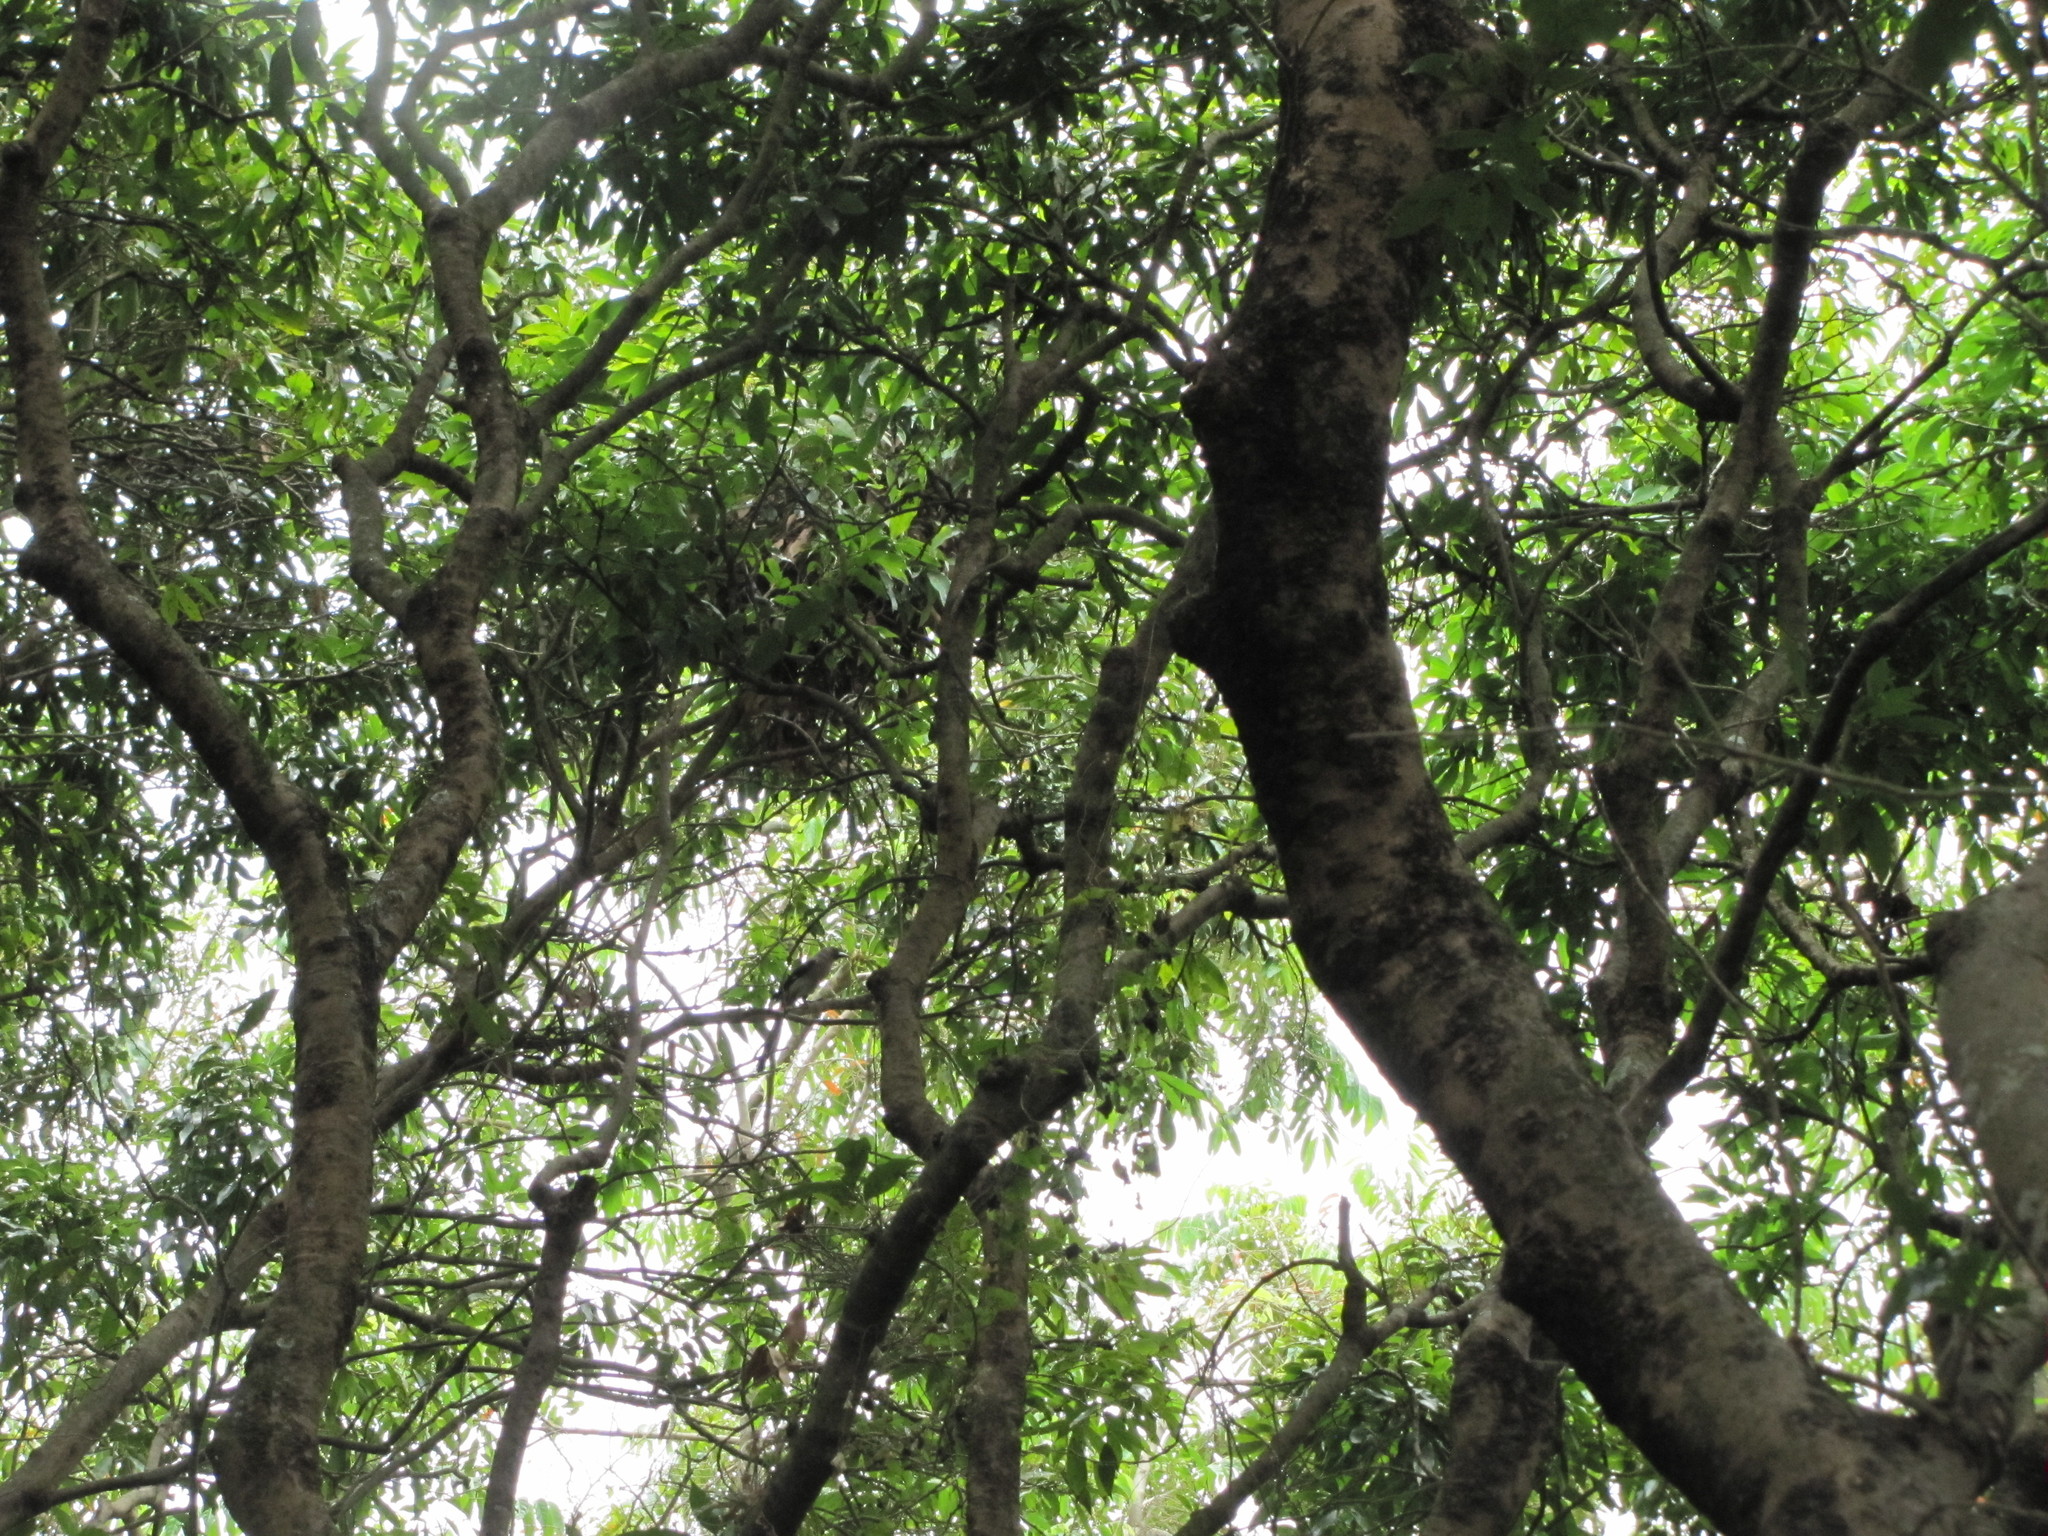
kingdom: Animalia
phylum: Chordata
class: Aves
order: Passeriformes
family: Corvidae
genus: Dendrocitta
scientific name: Dendrocitta formosae
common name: Grey treepie
